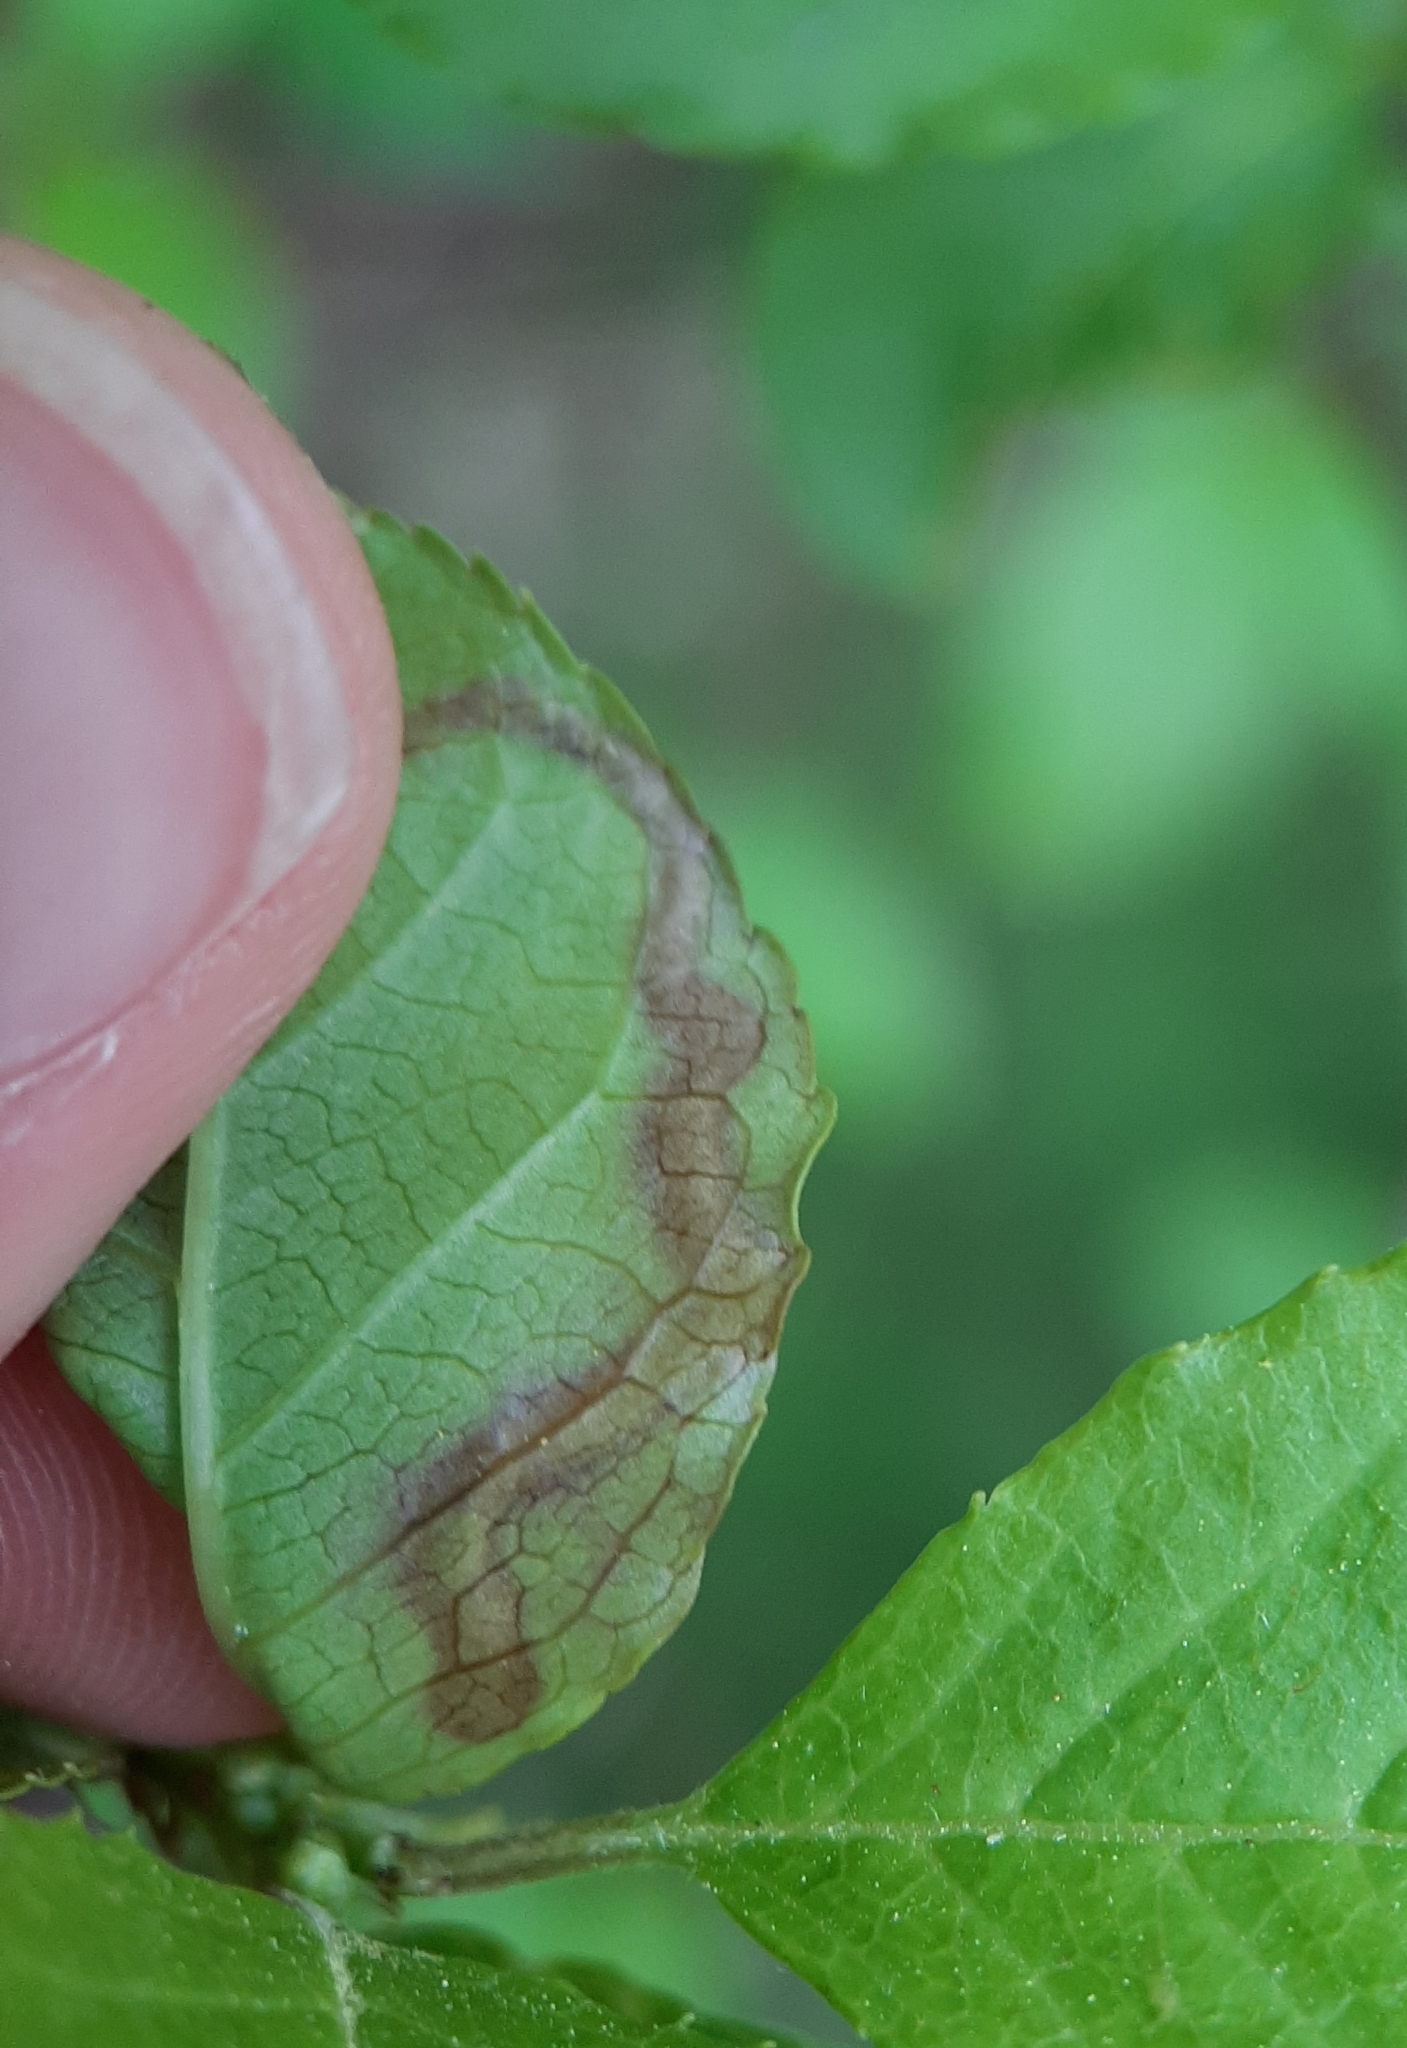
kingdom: Animalia
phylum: Arthropoda
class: Insecta
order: Diptera
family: Agromyzidae
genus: Phytomyza
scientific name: Phytomyza
